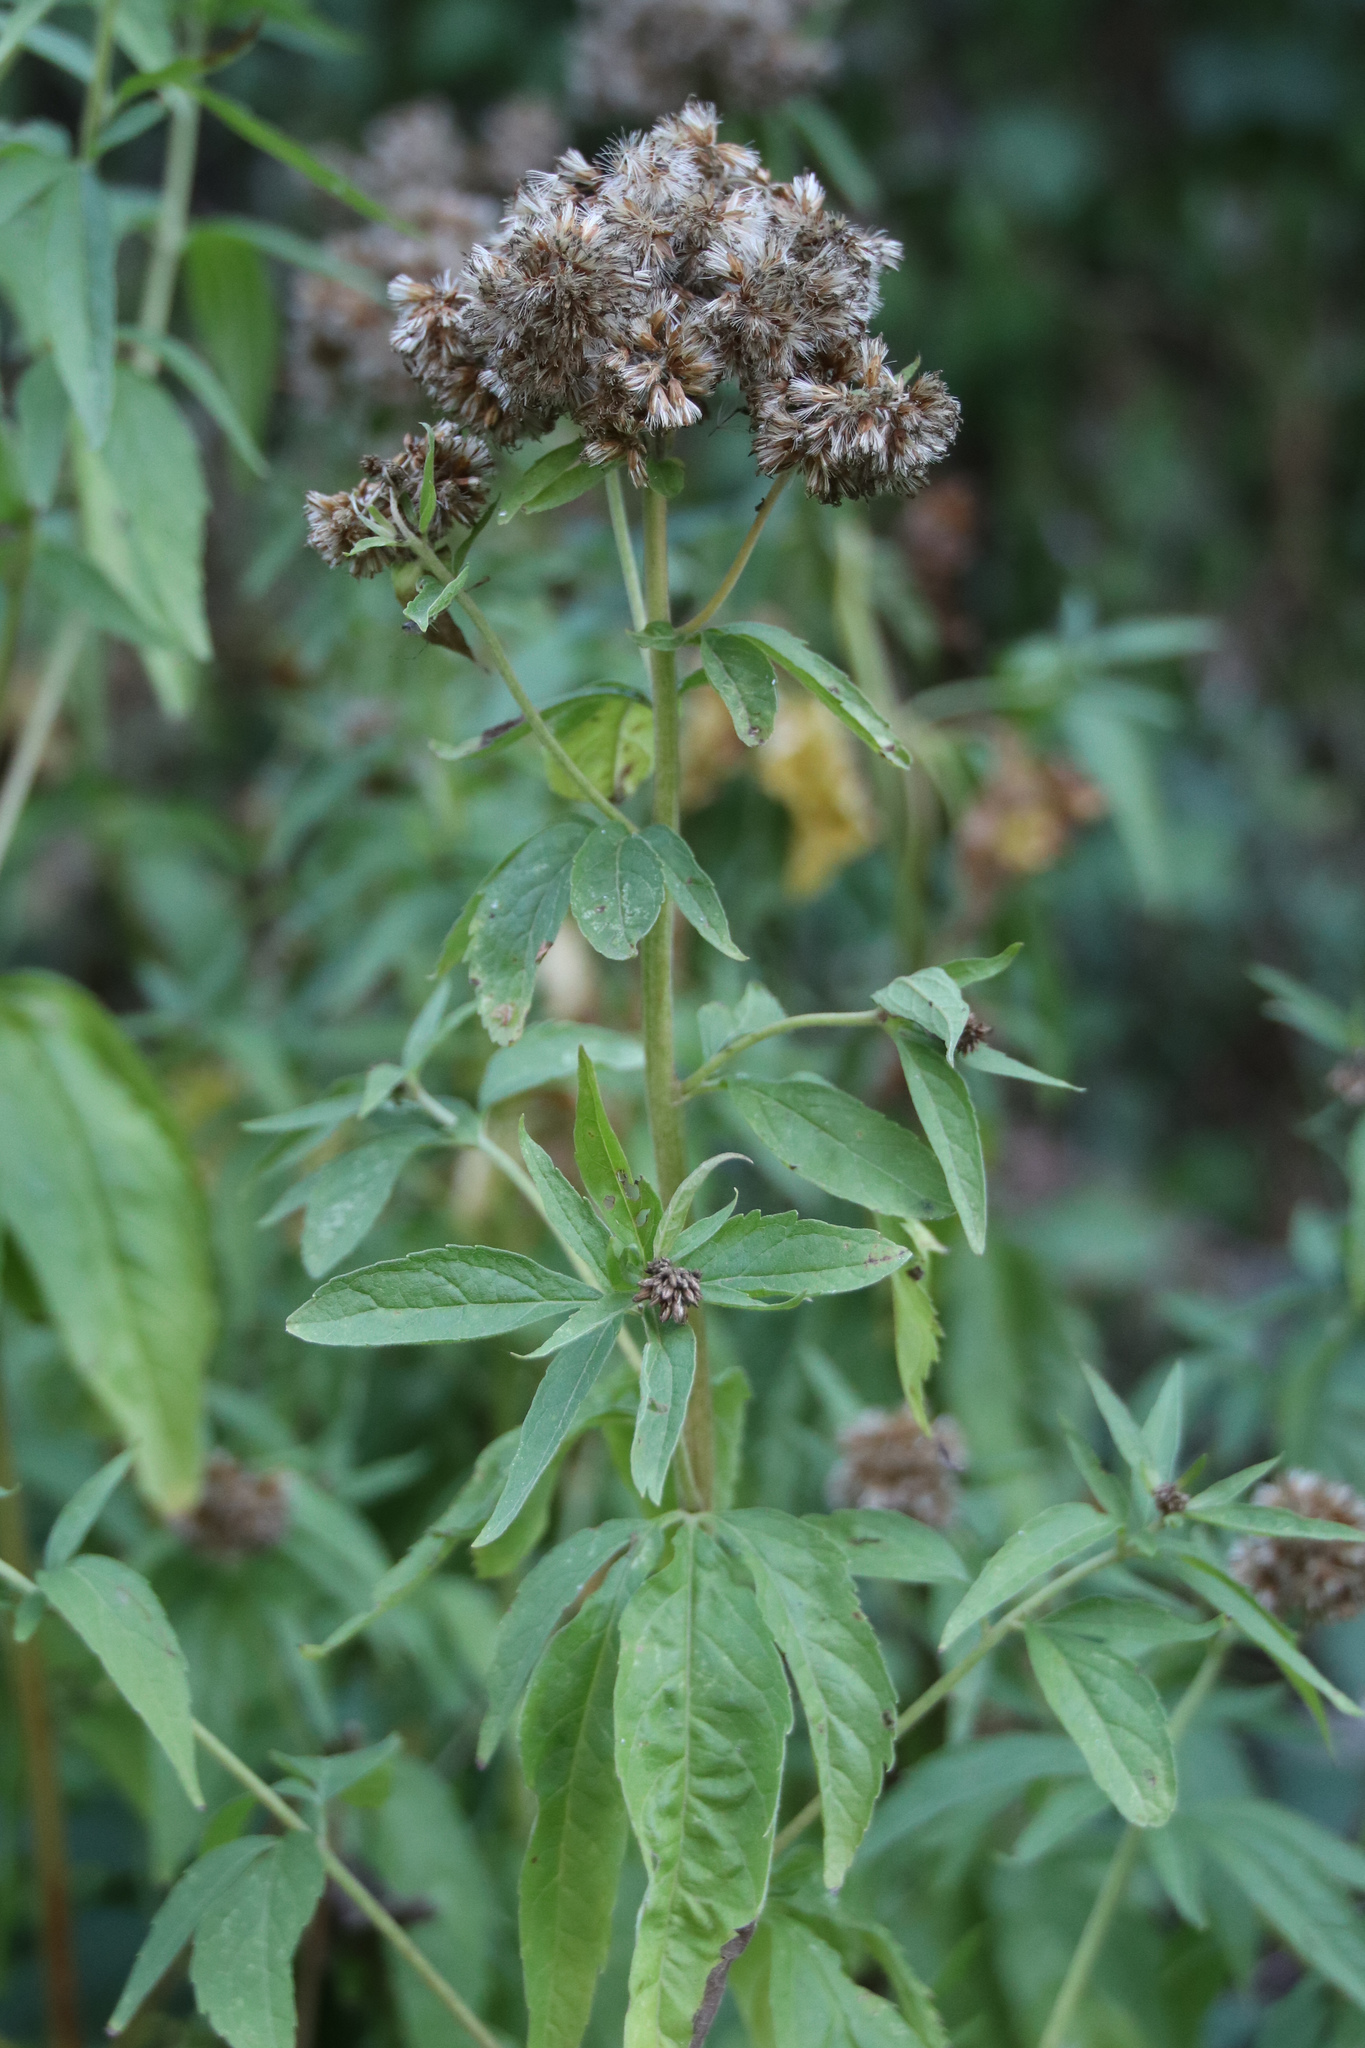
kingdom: Plantae
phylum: Tracheophyta
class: Magnoliopsida
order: Asterales
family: Asteraceae
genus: Eupatorium
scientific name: Eupatorium cannabinum
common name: Hemp-agrimony
